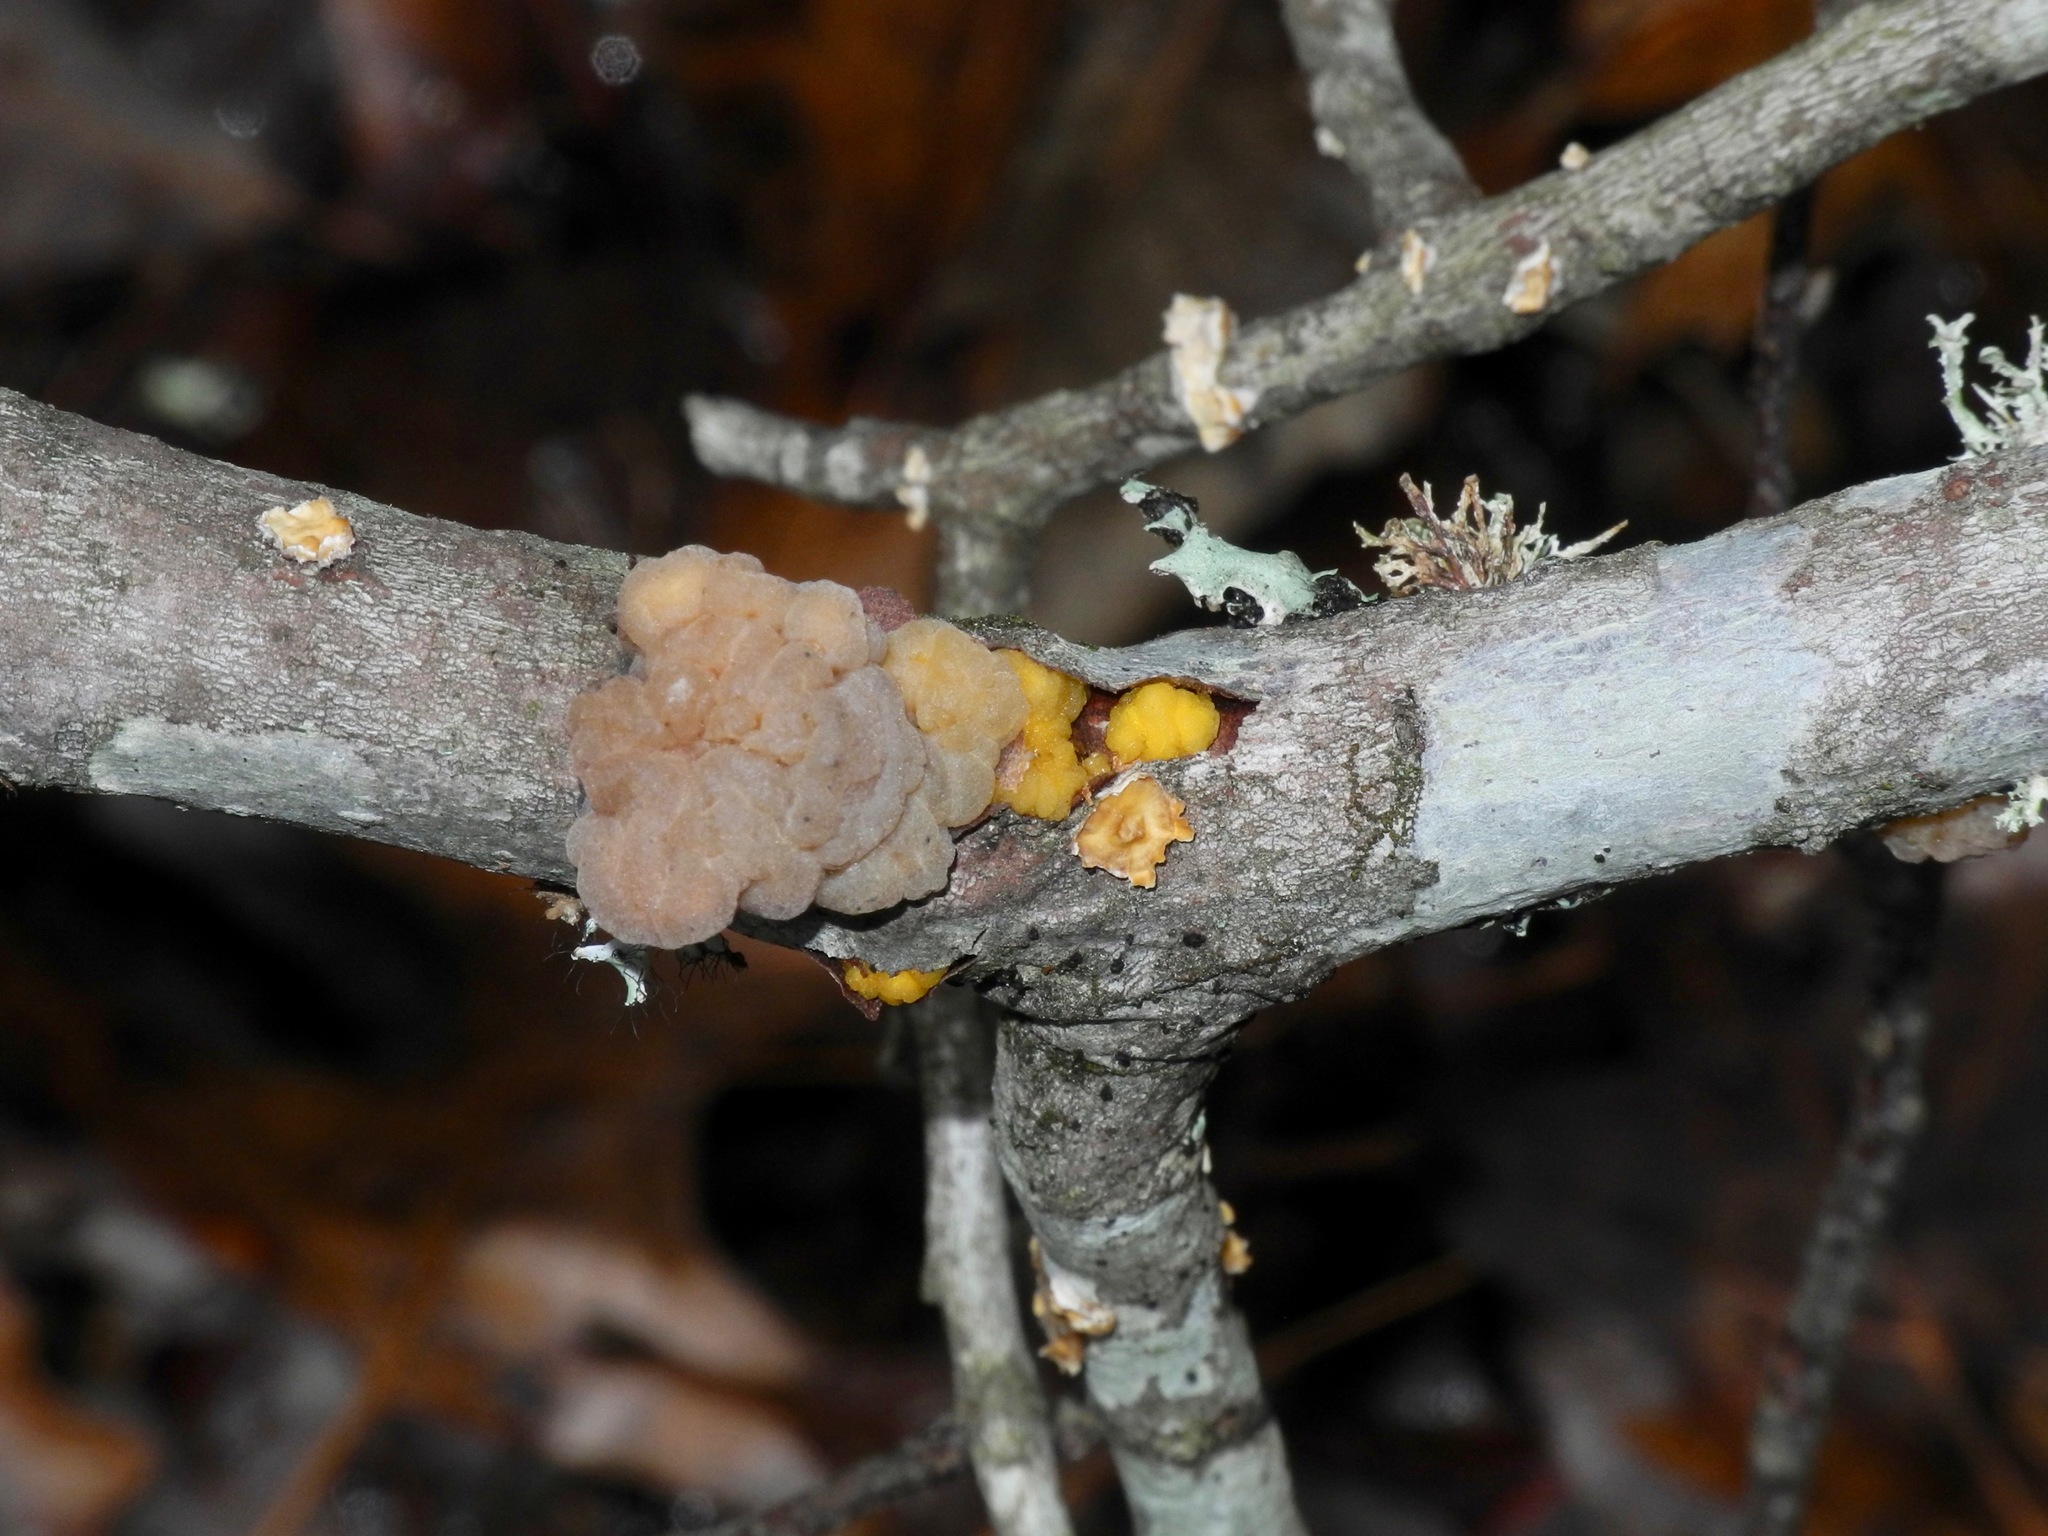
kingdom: Fungi
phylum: Basidiomycota
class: Tremellomycetes
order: Tremellales
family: Tremellaceae
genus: Tremella
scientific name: Tremella mesenterica
